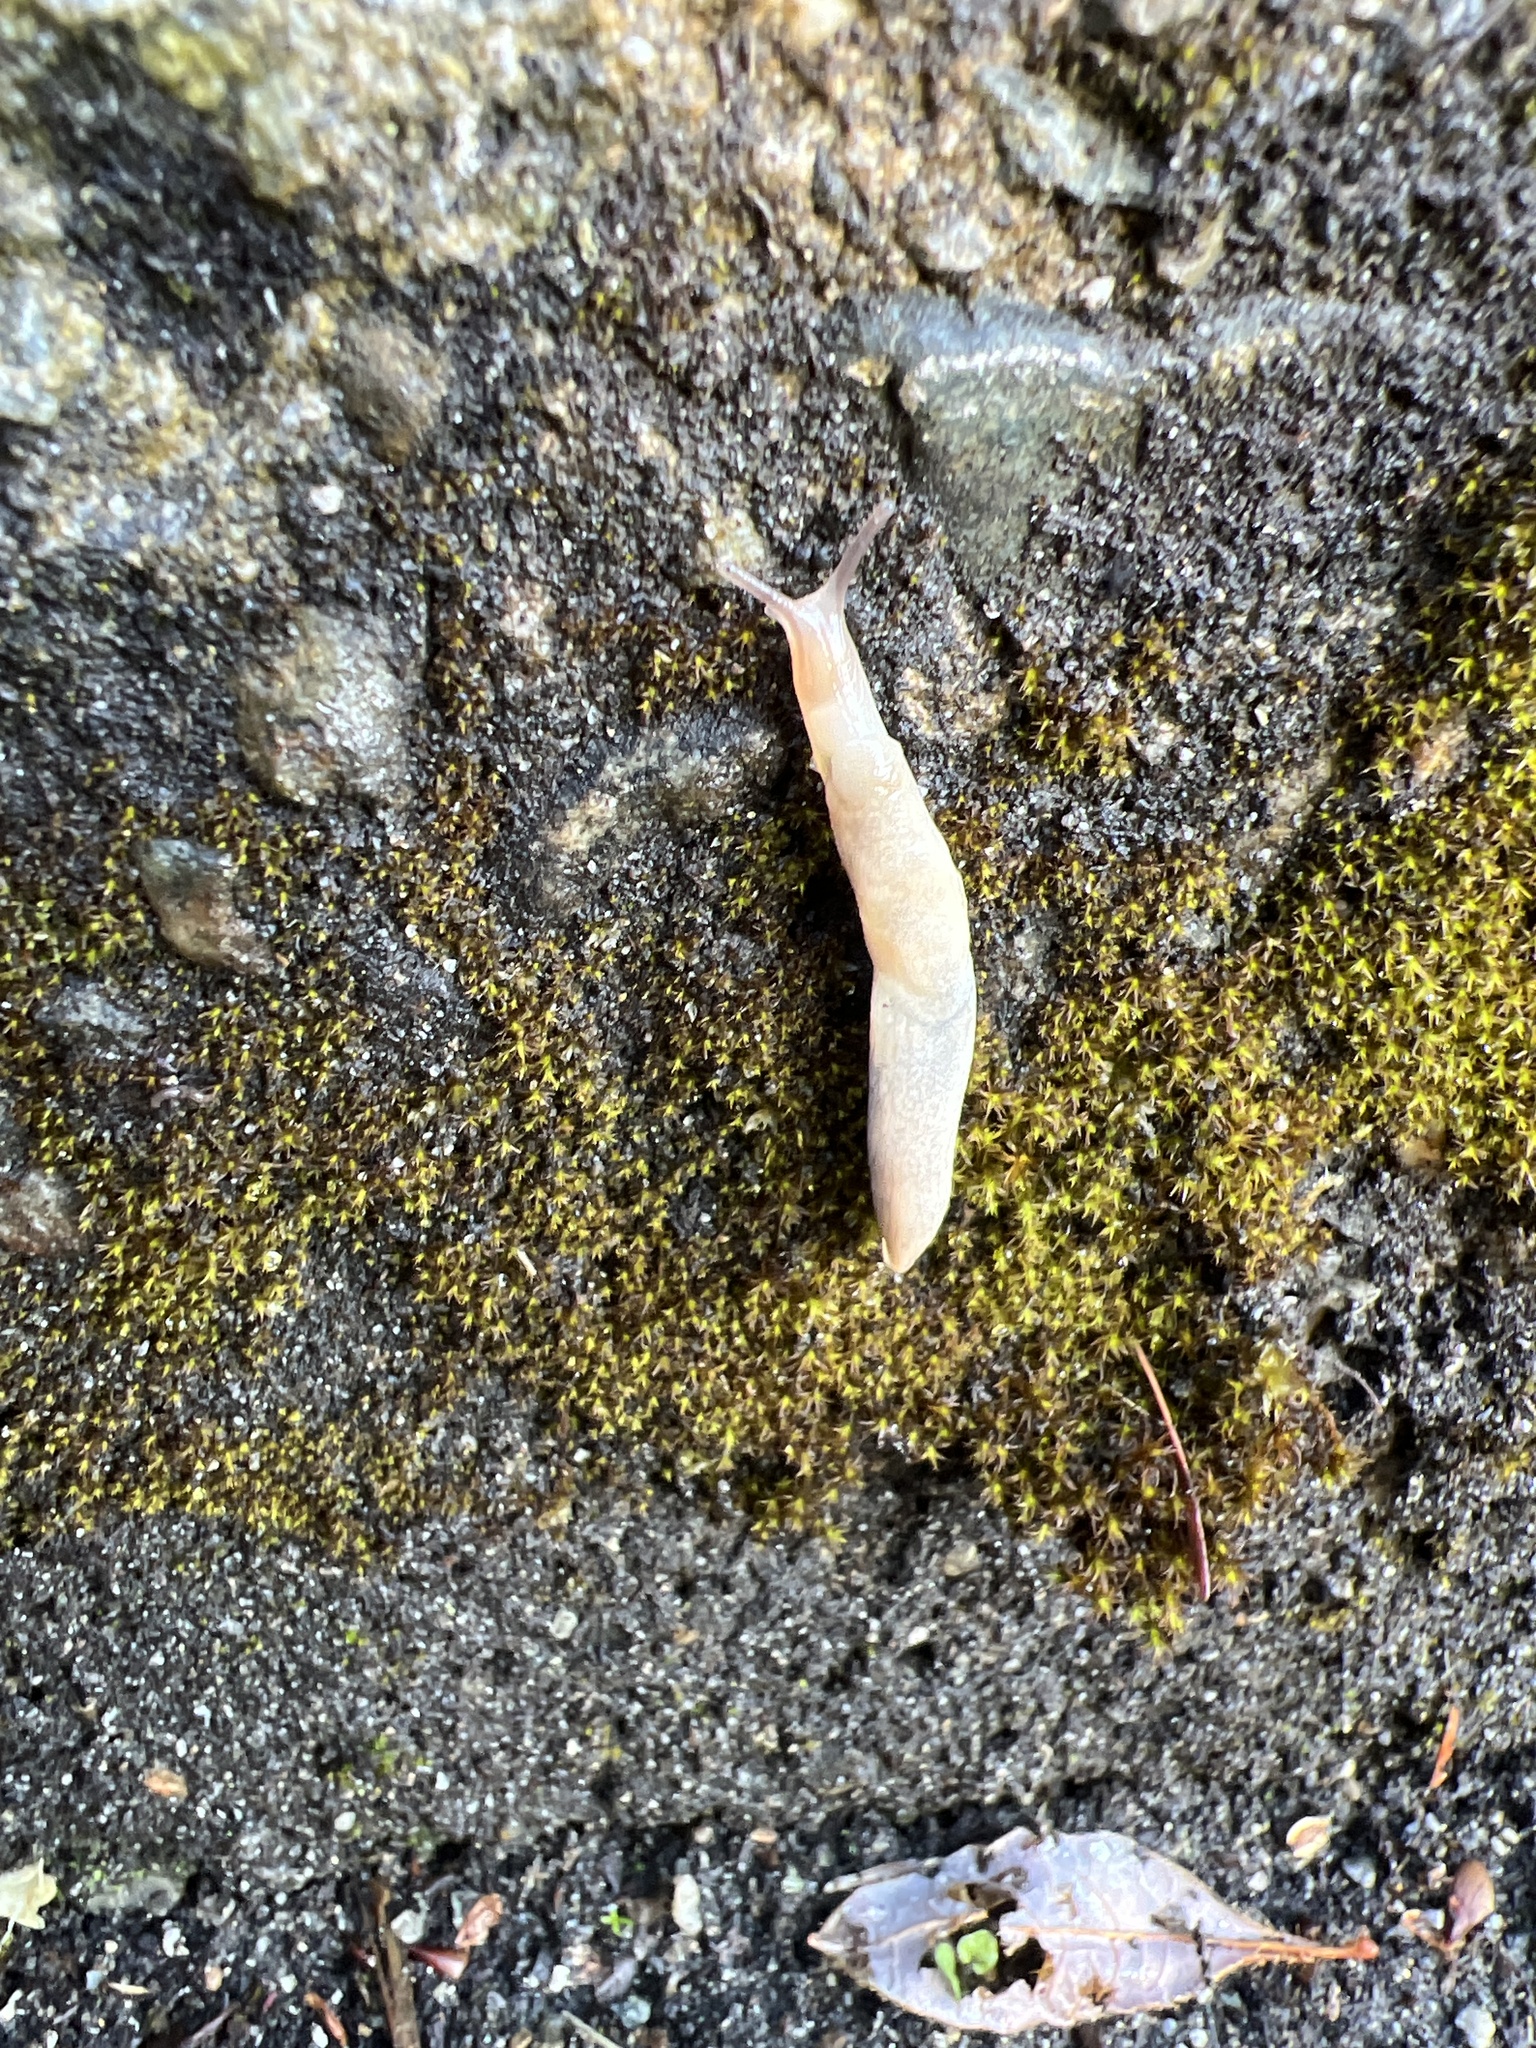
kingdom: Animalia
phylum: Mollusca
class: Gastropoda
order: Stylommatophora
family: Agriolimacidae
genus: Deroceras
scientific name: Deroceras reticulatum
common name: Gray field slug
